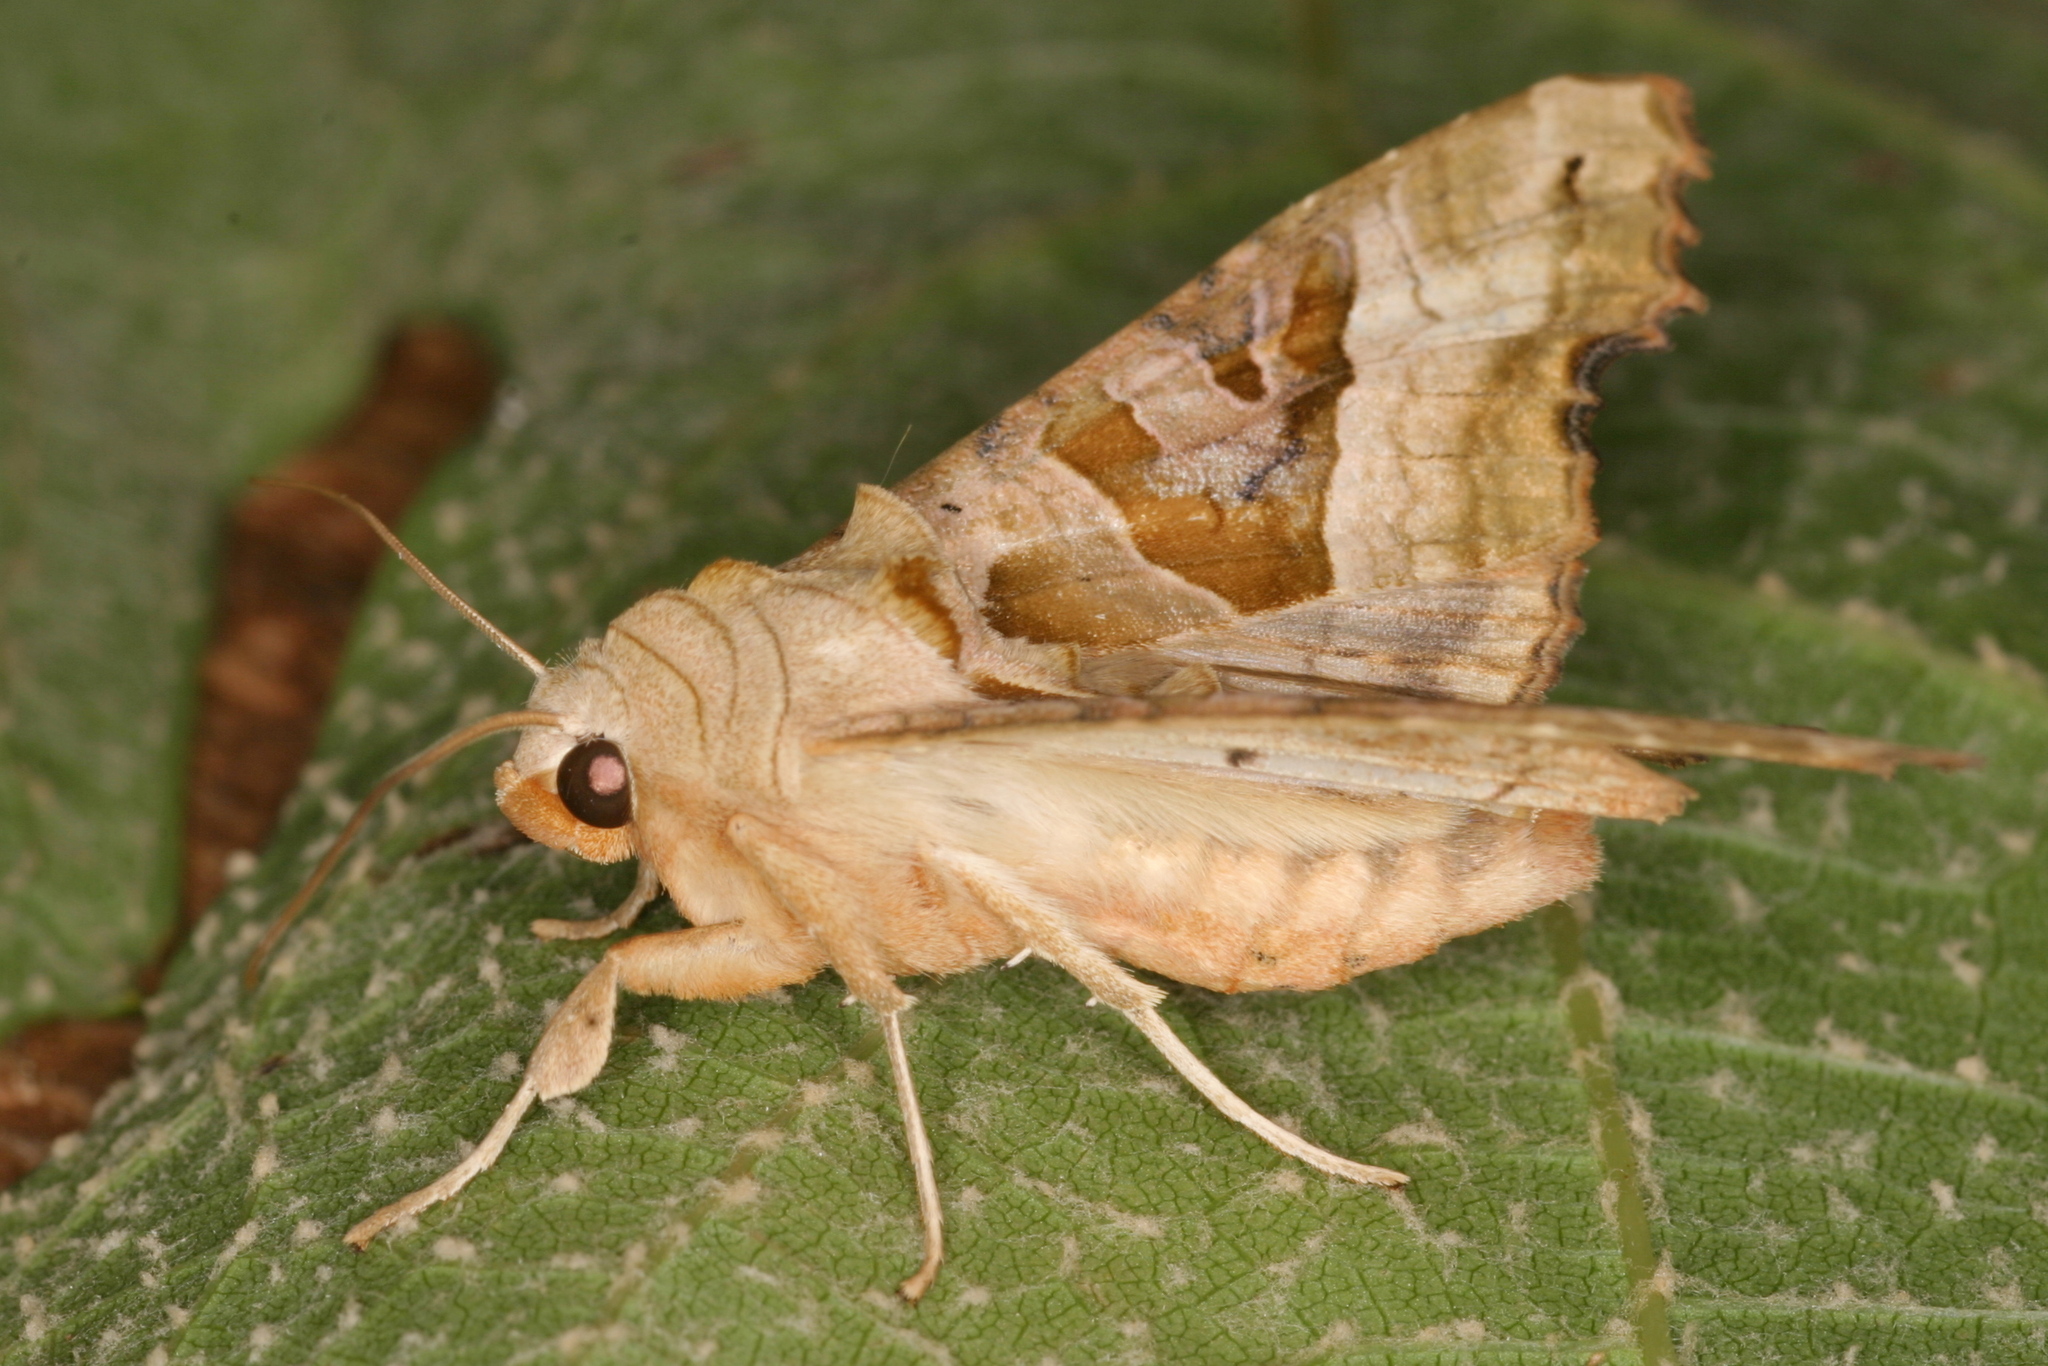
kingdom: Animalia
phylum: Arthropoda
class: Insecta
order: Lepidoptera
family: Noctuidae
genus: Phlogophora
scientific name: Phlogophora meticulosa
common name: Angle shades
